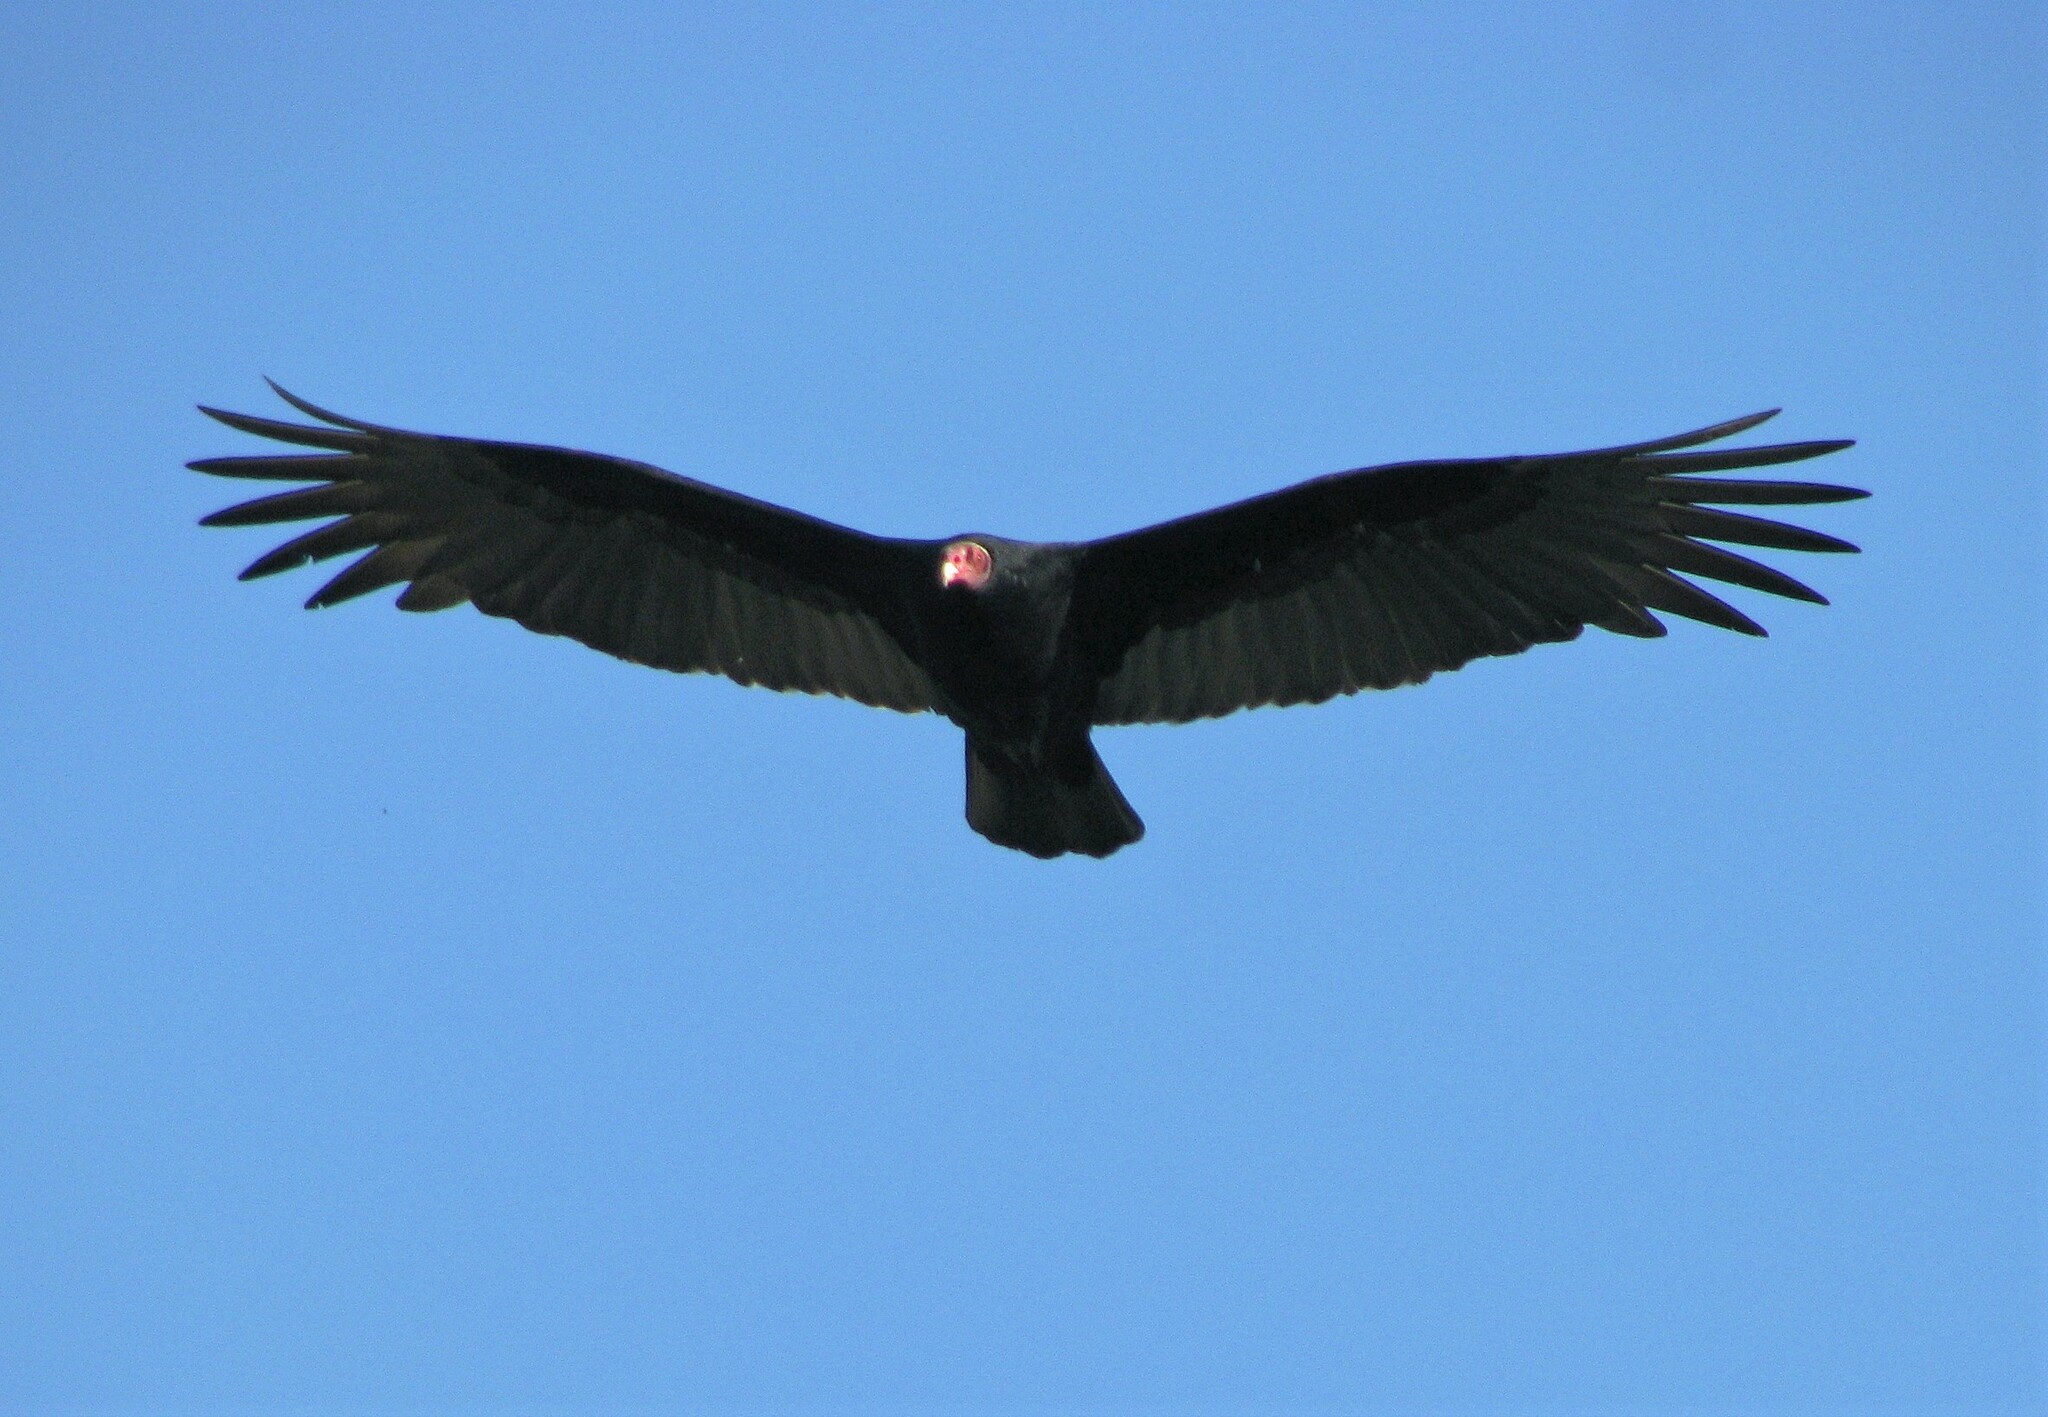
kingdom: Animalia
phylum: Chordata
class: Aves
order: Accipitriformes
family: Cathartidae
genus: Cathartes
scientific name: Cathartes aura
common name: Turkey vulture
